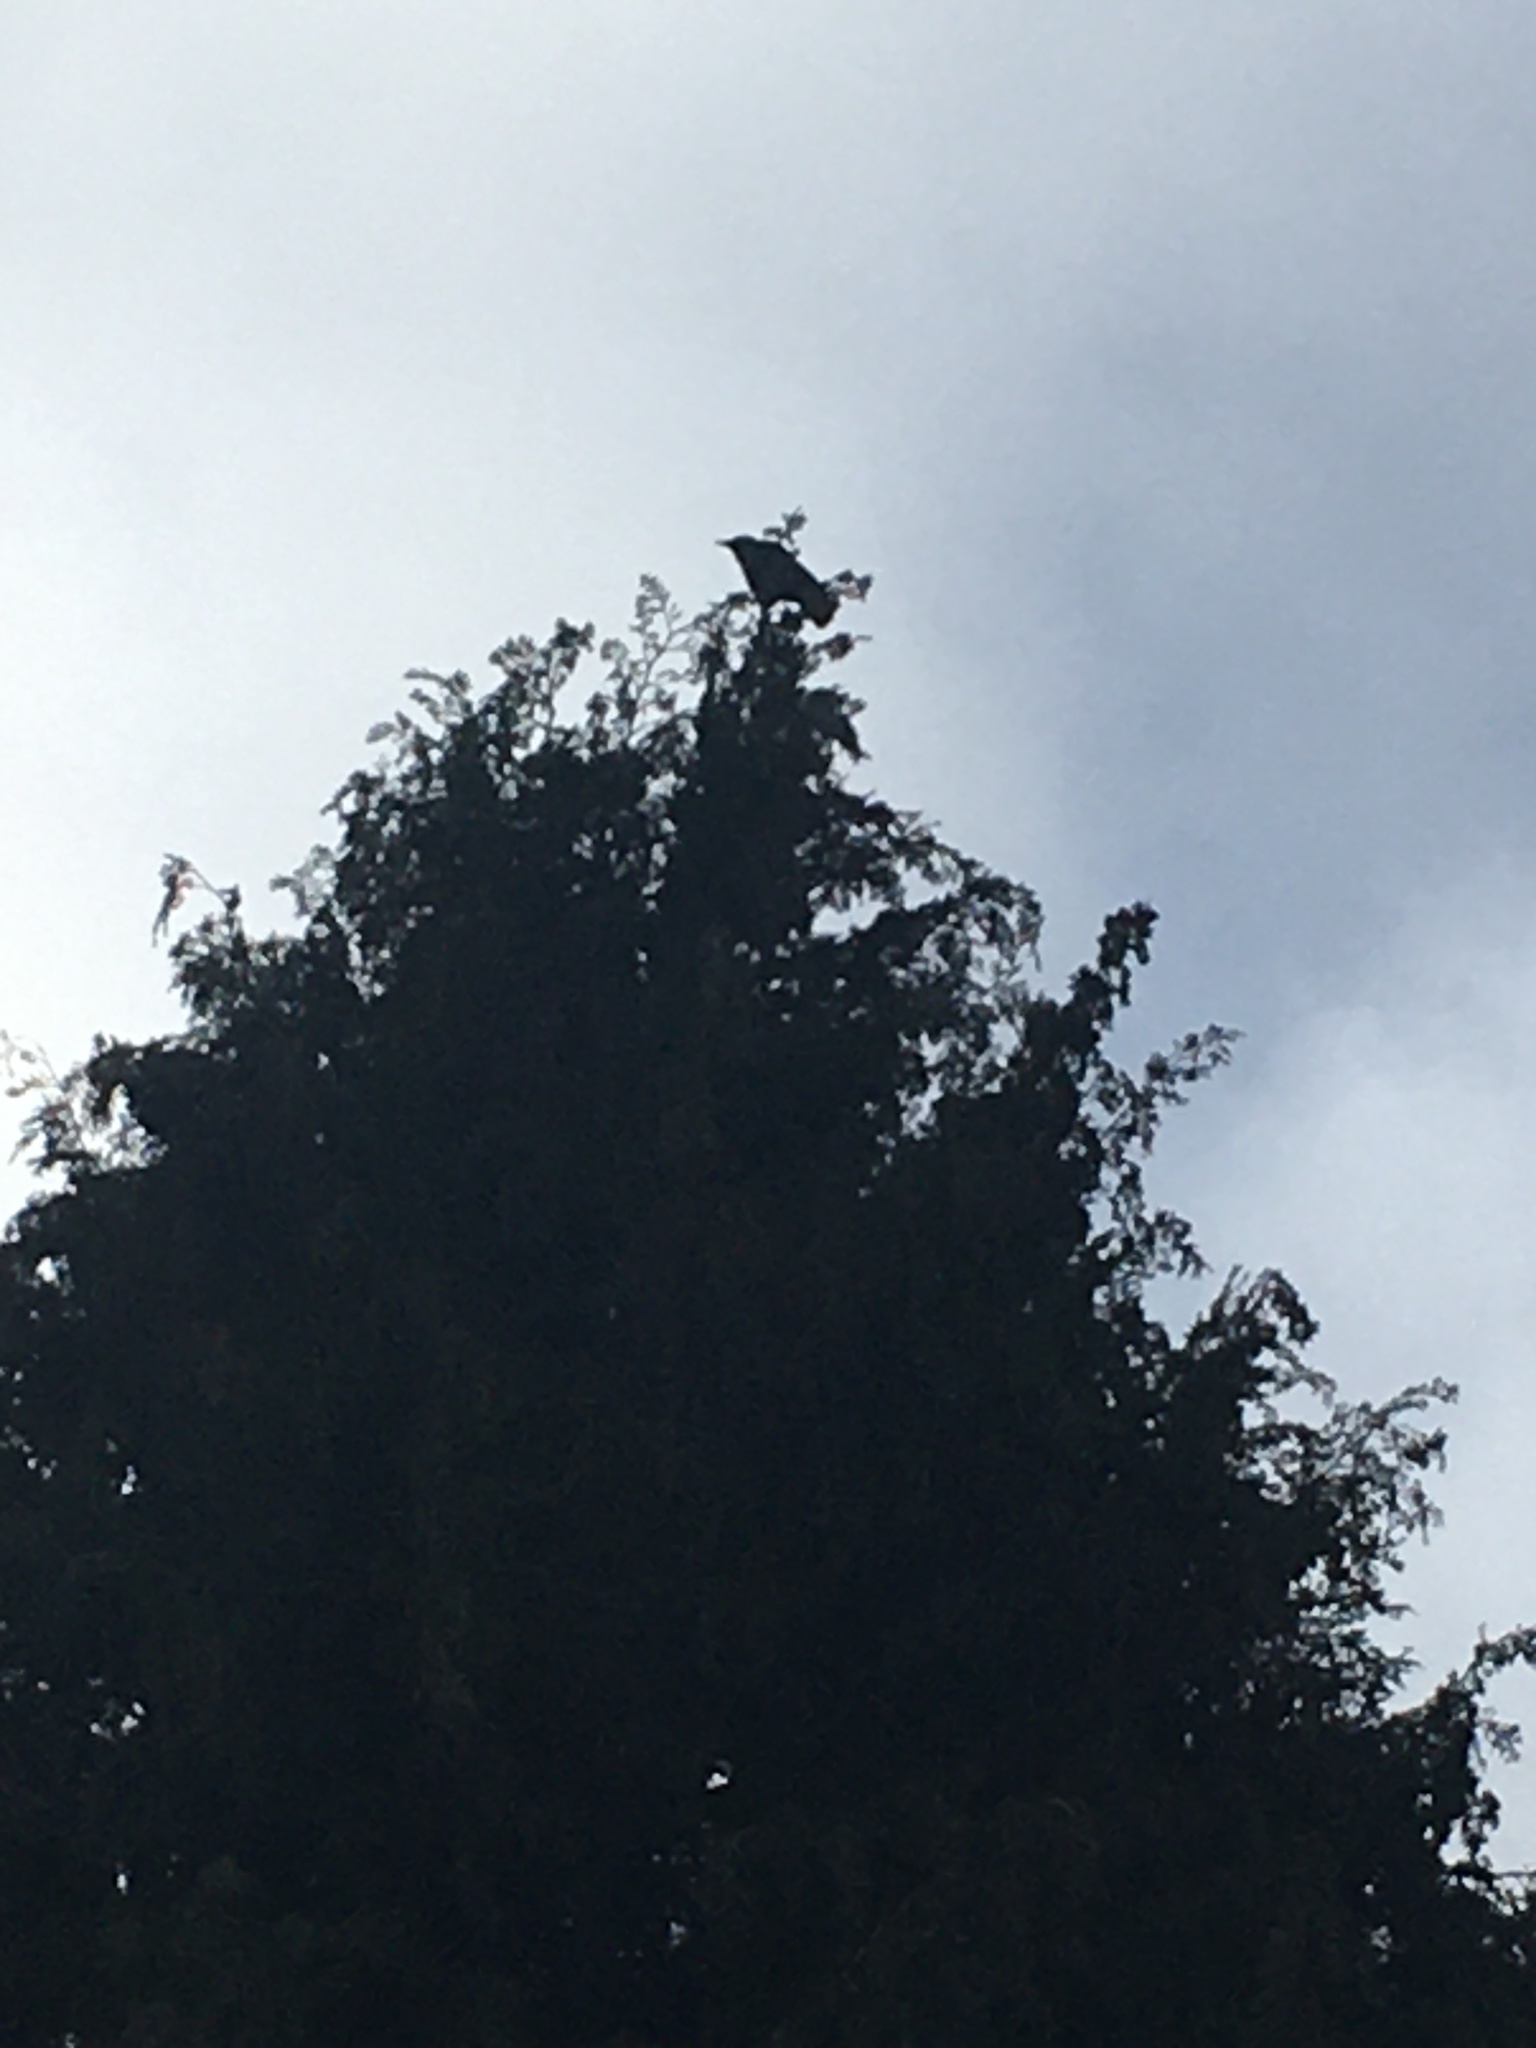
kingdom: Animalia
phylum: Chordata
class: Aves
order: Passeriformes
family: Corvidae
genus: Corvus
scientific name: Corvus brachyrhynchos
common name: American crow
